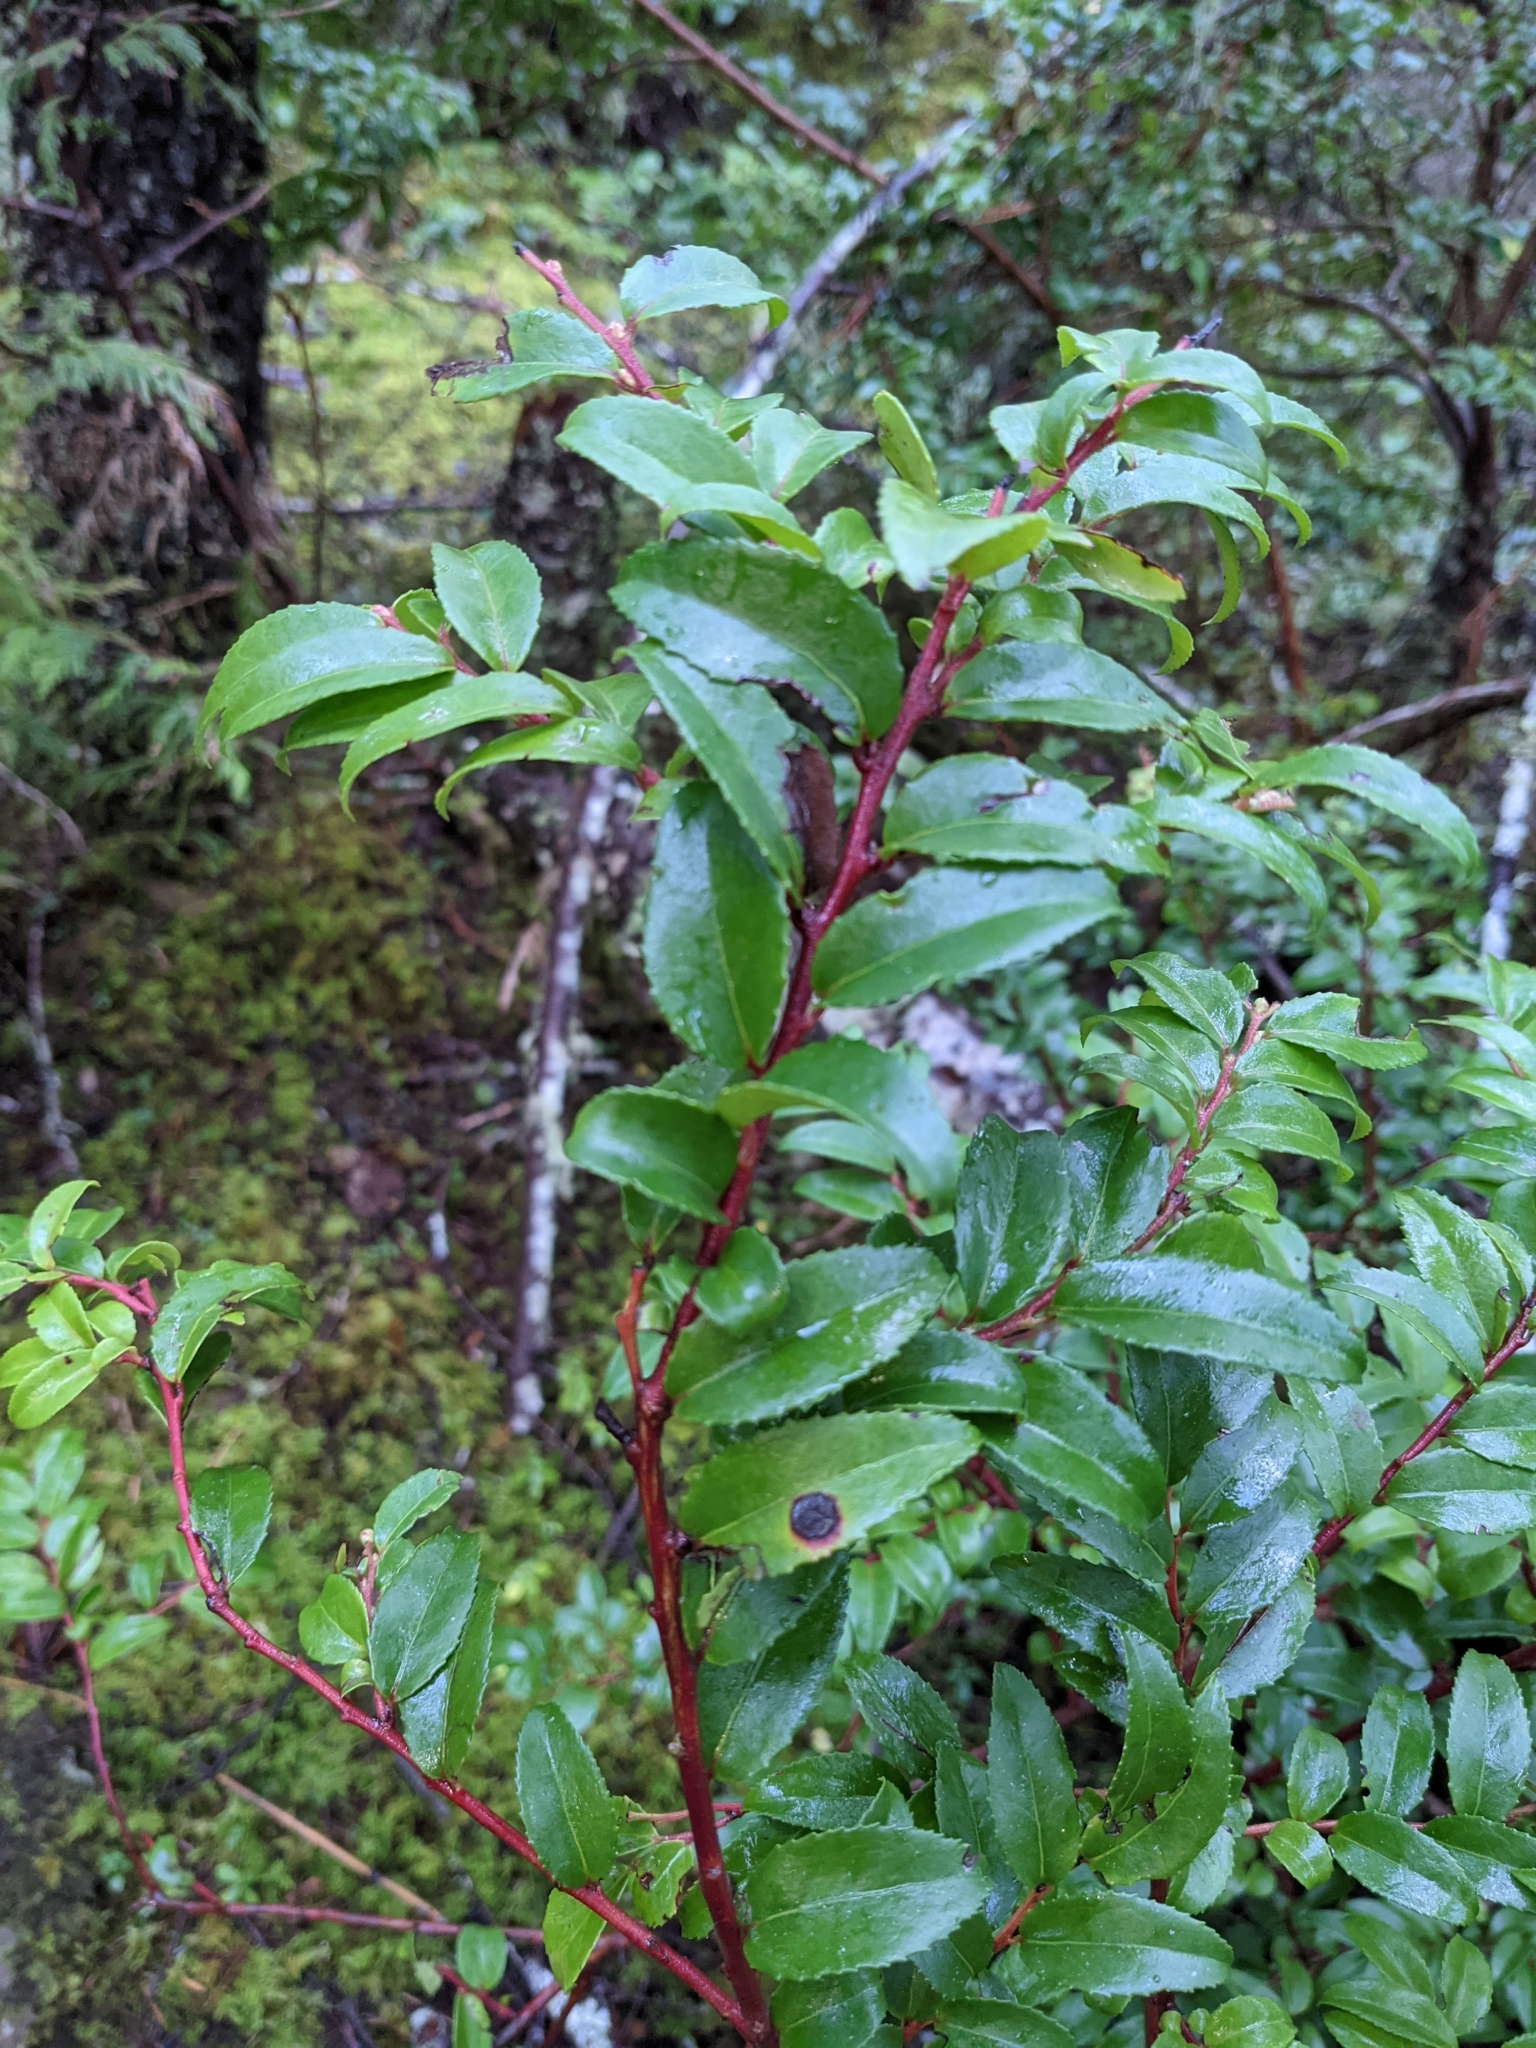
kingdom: Plantae
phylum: Tracheophyta
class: Magnoliopsida
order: Ericales
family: Ericaceae
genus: Vaccinium
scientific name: Vaccinium ovatum
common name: California-huckleberry
